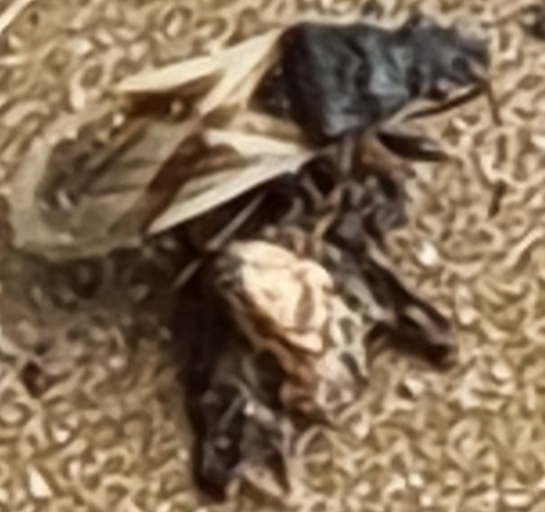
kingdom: Animalia
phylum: Arthropoda
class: Insecta
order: Hemiptera
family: Oxycarenidae
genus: Metopoplax
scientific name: Metopoplax origani
